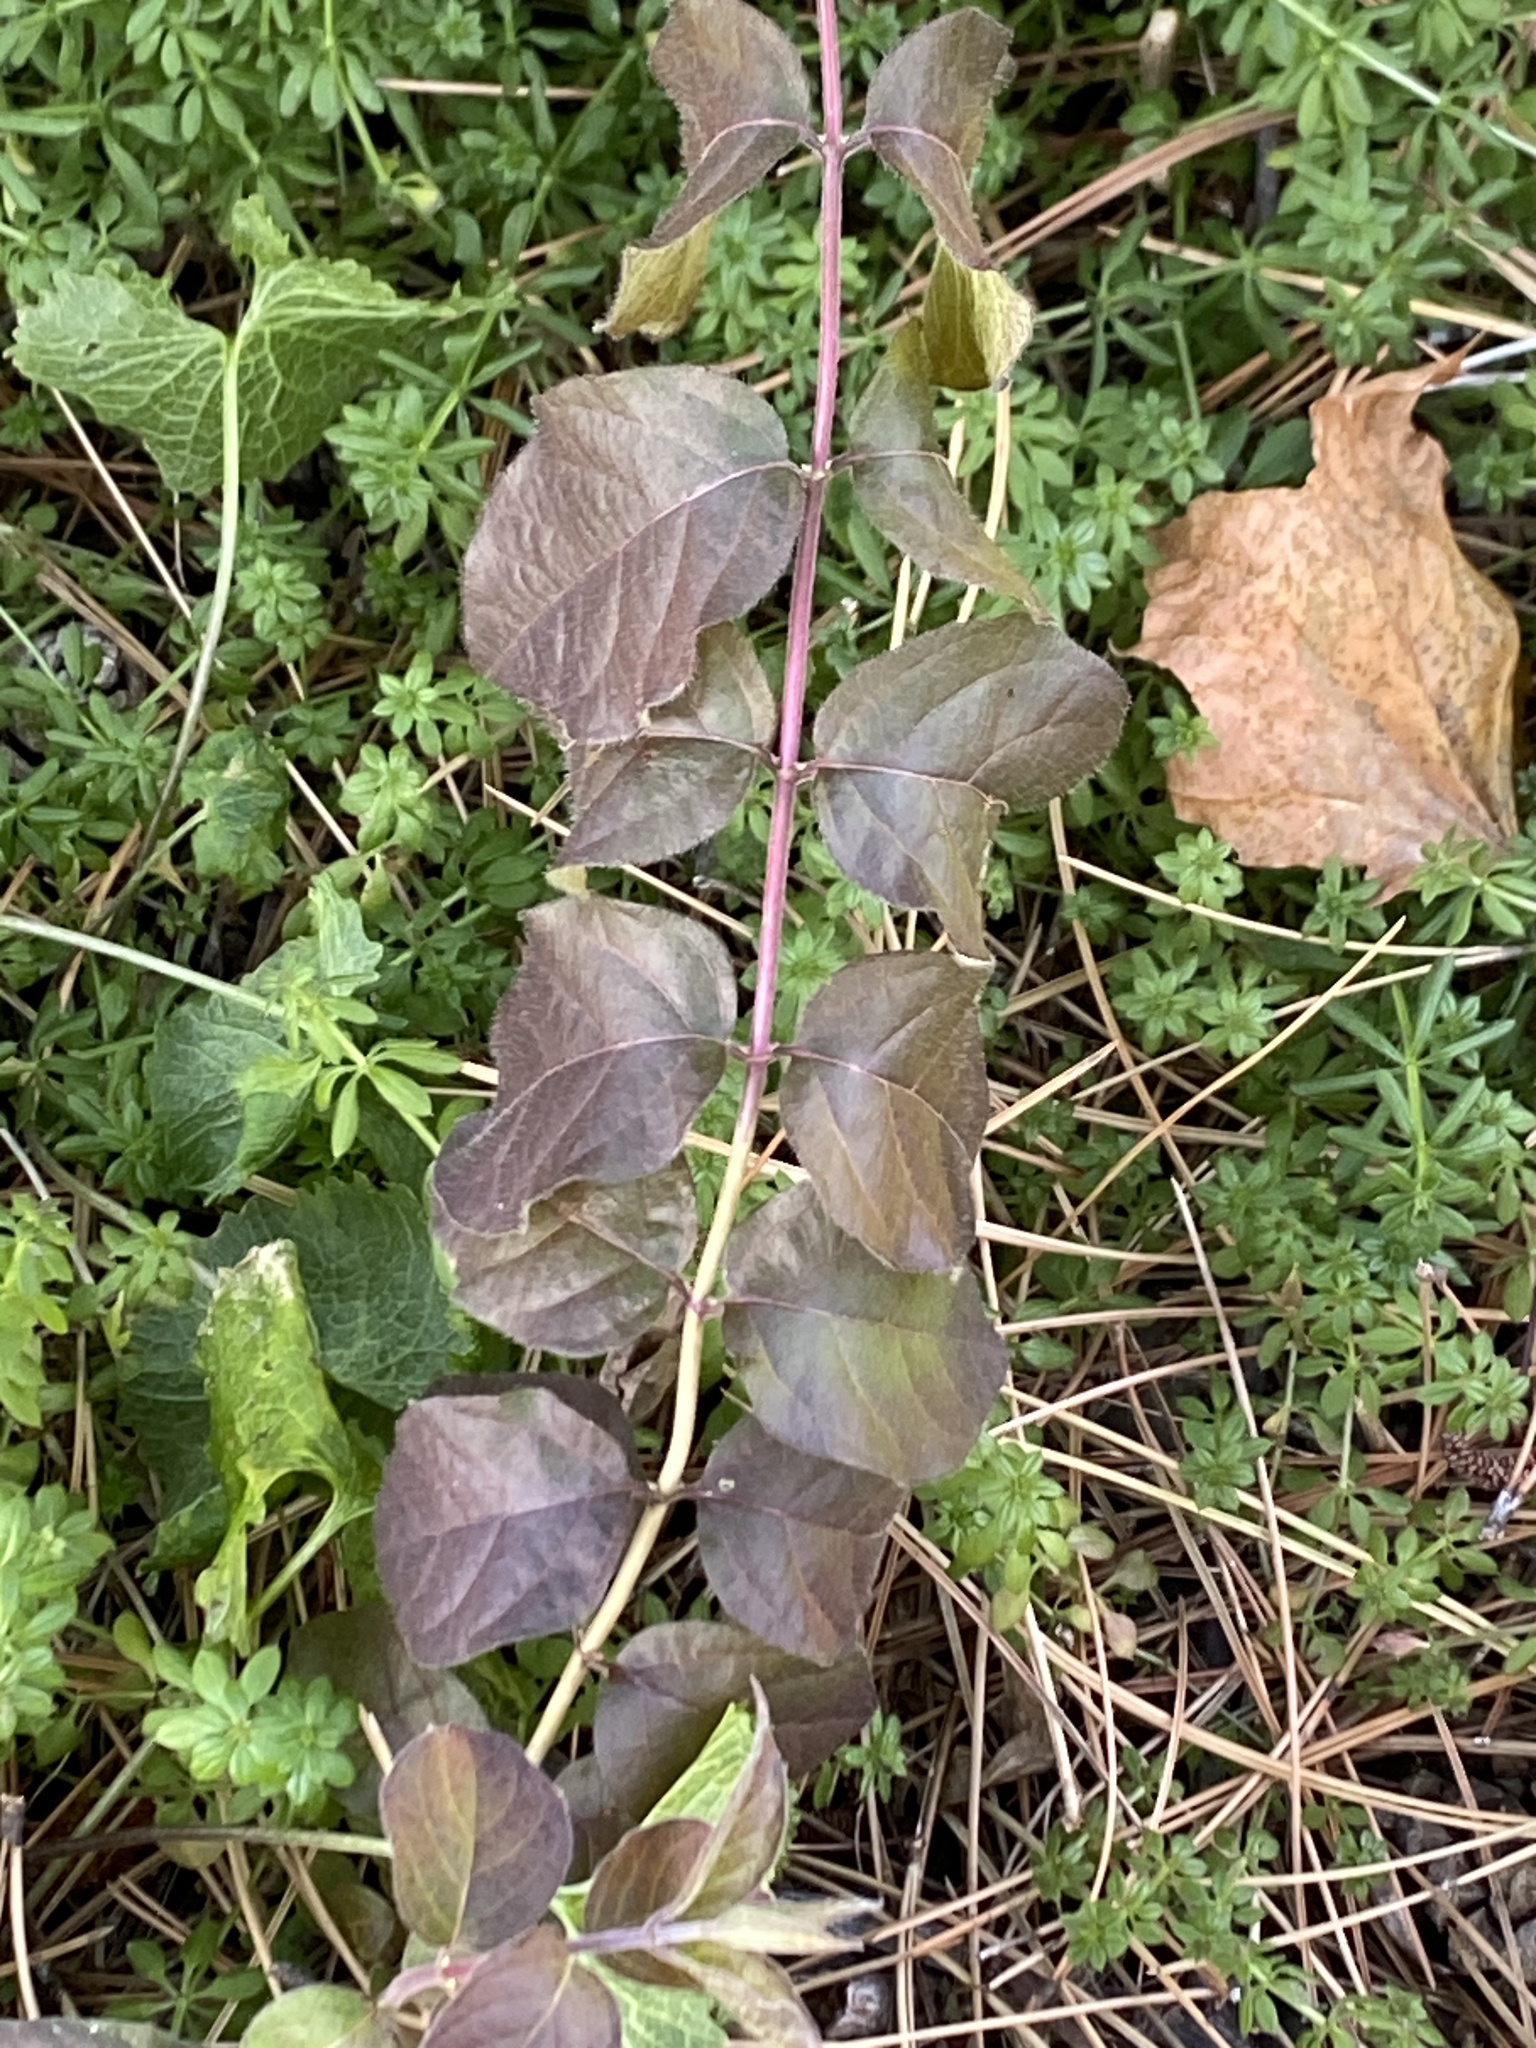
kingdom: Plantae
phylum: Tracheophyta
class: Magnoliopsida
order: Dipsacales
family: Caprifoliaceae
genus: Lonicera
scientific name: Lonicera maackii
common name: Amur honeysuckle
